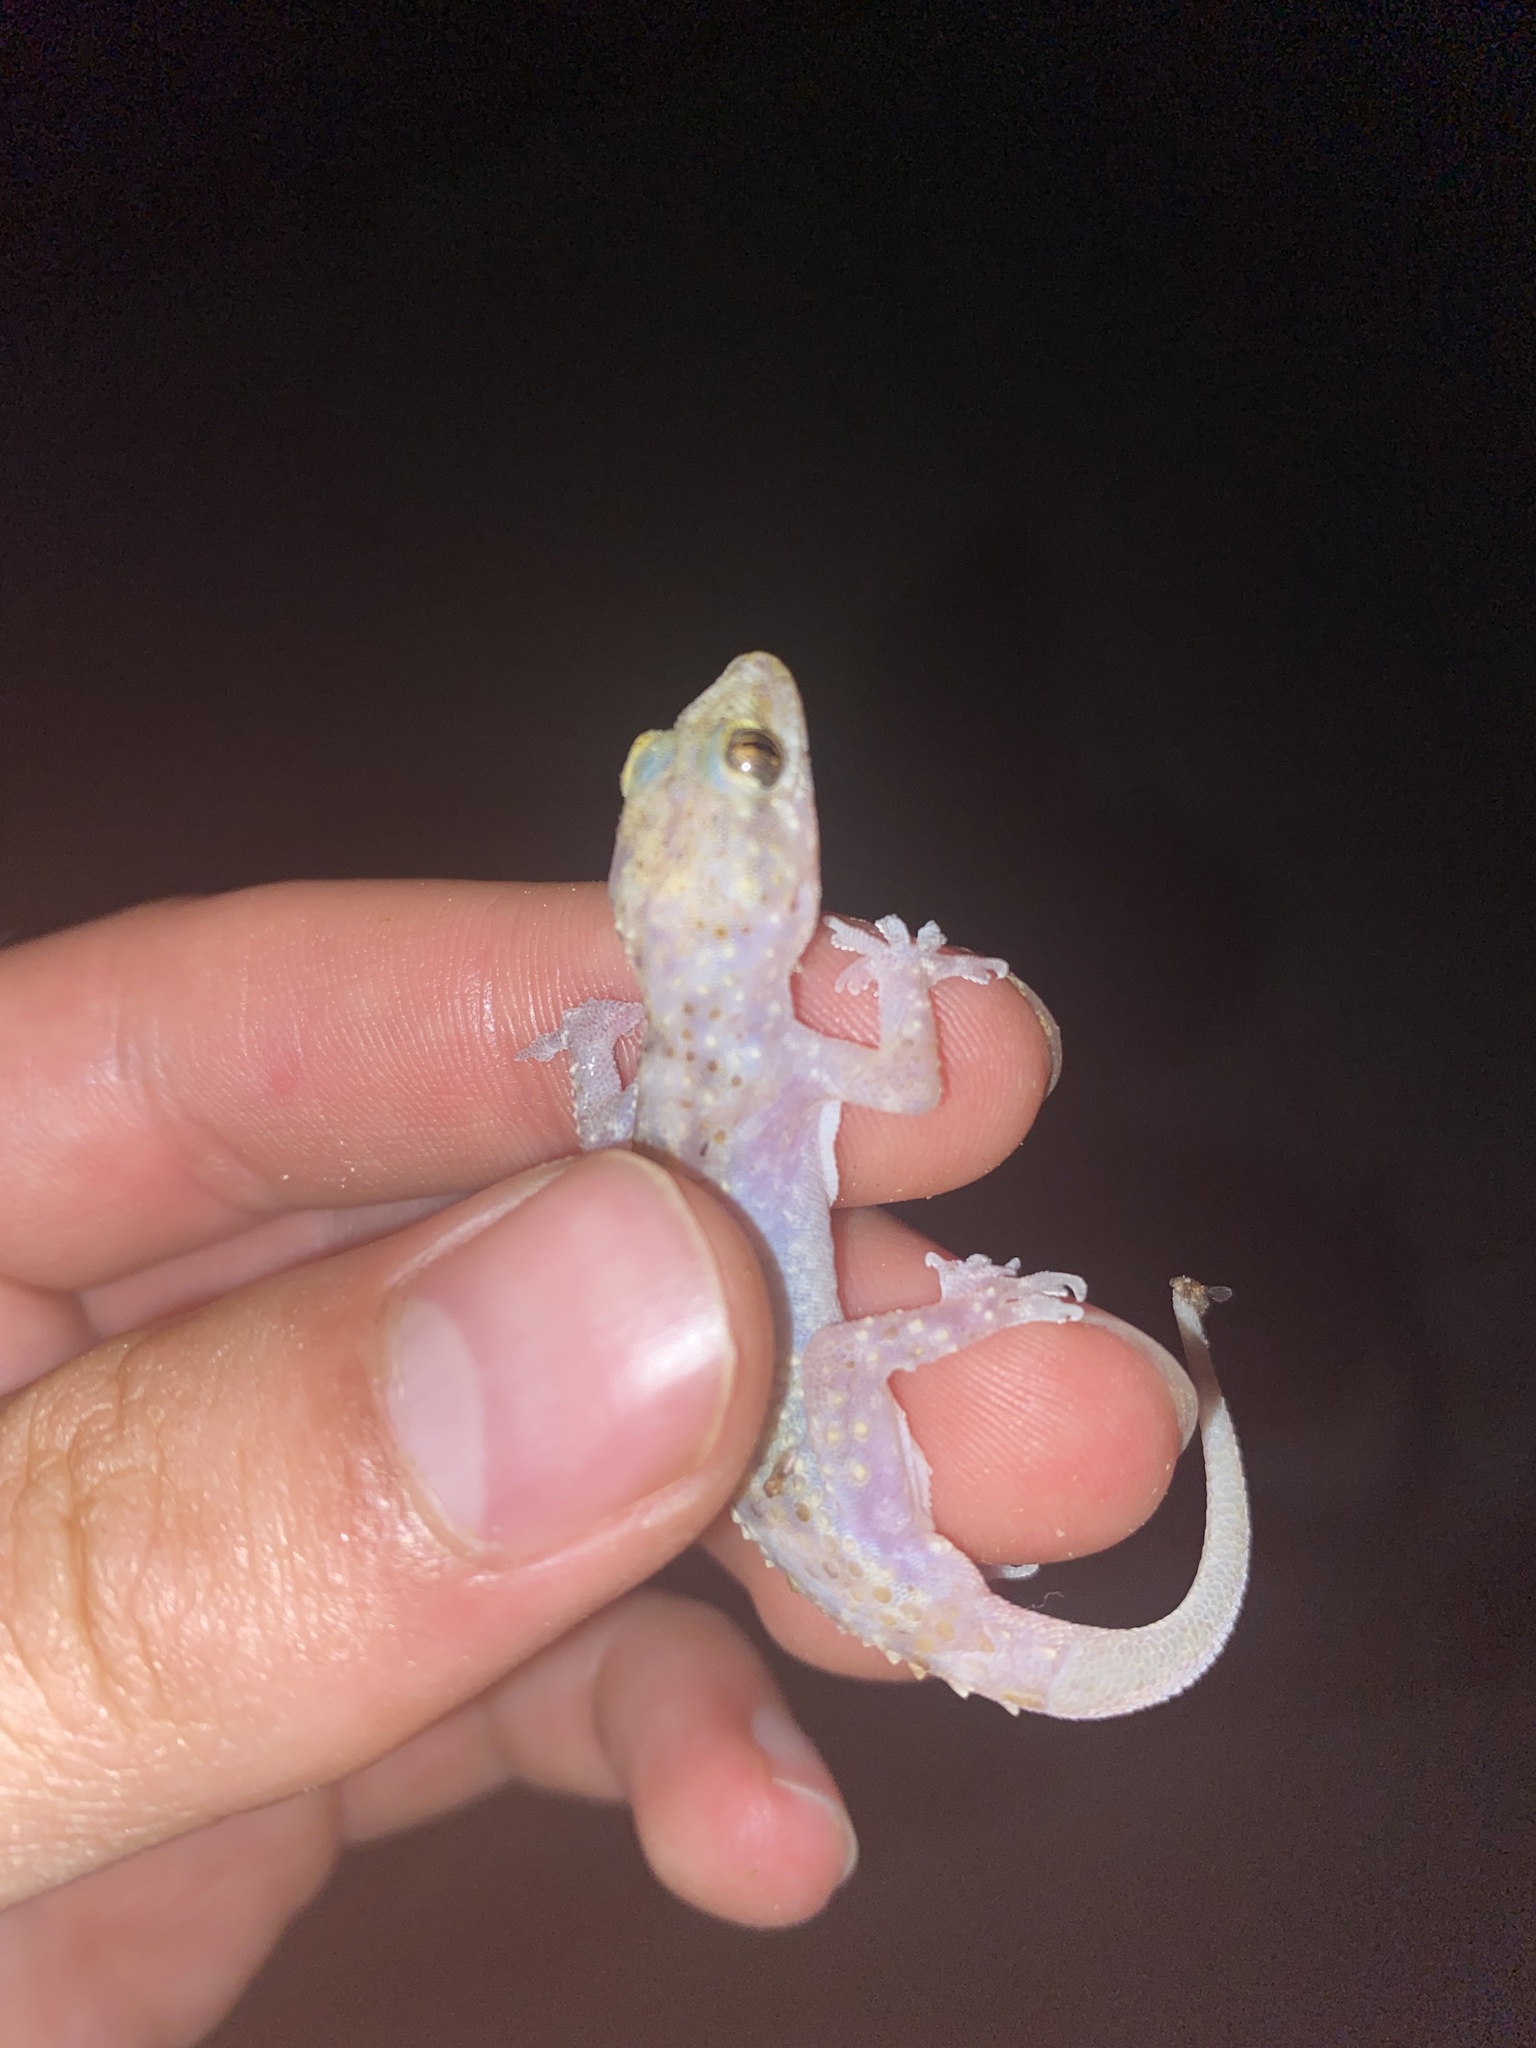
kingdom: Animalia
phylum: Chordata
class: Squamata
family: Gekkonidae
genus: Hemidactylus
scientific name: Hemidactylus turcicus
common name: Turkish gecko
